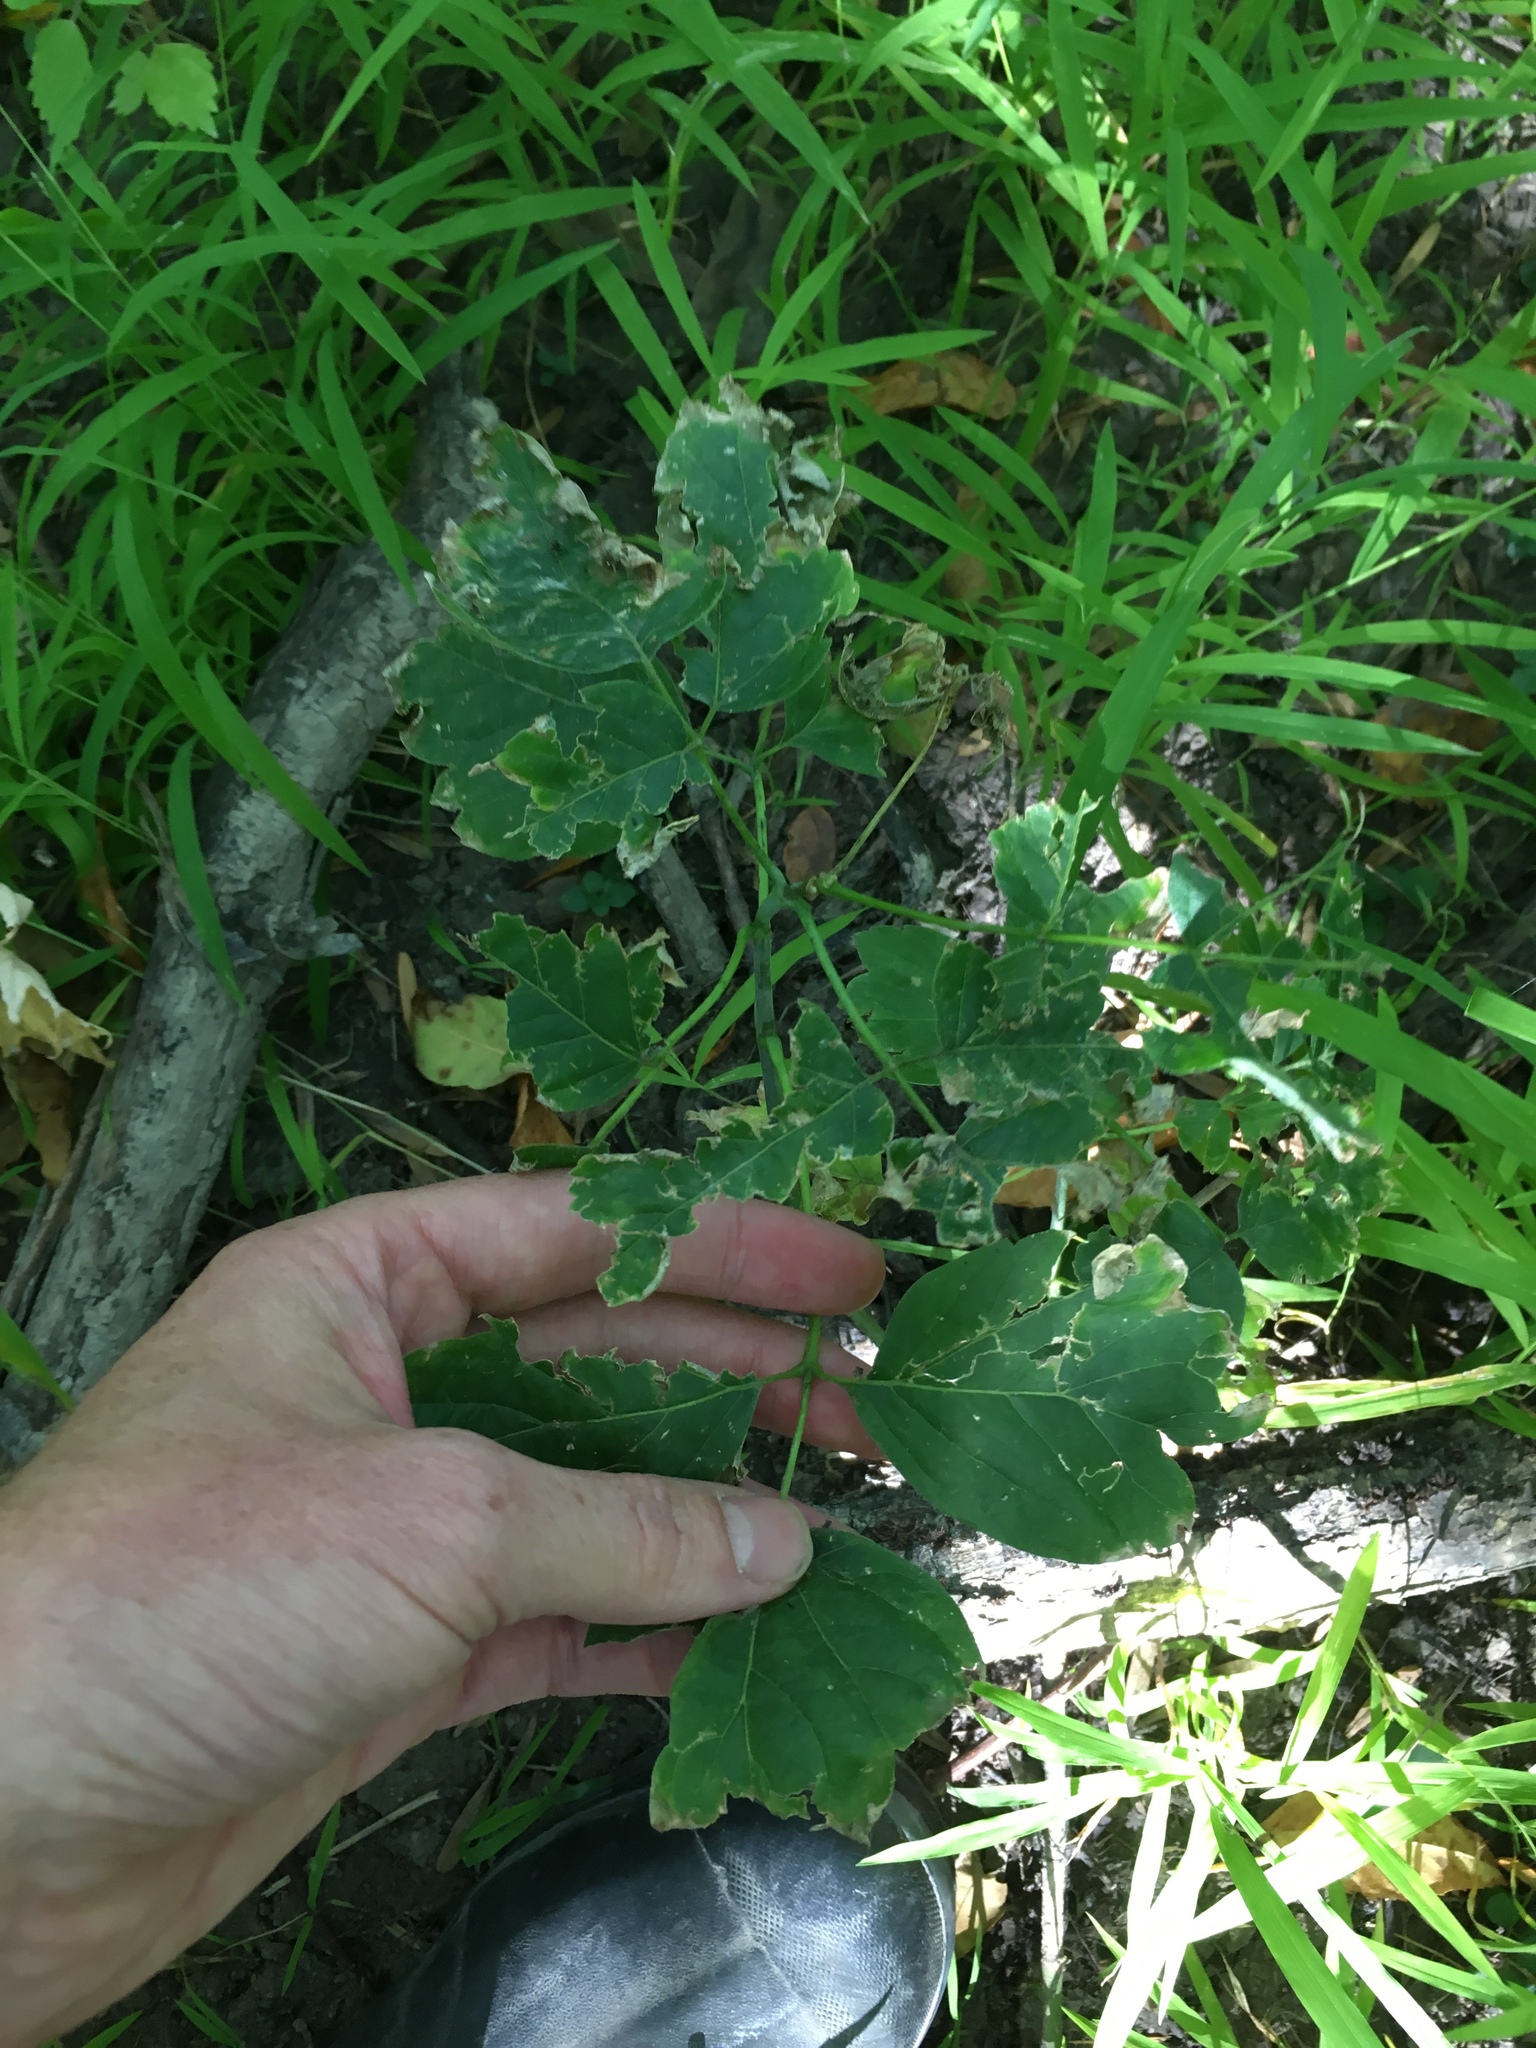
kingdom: Plantae
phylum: Tracheophyta
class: Magnoliopsida
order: Sapindales
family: Sapindaceae
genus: Acer
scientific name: Acer negundo
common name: Ashleaf maple
